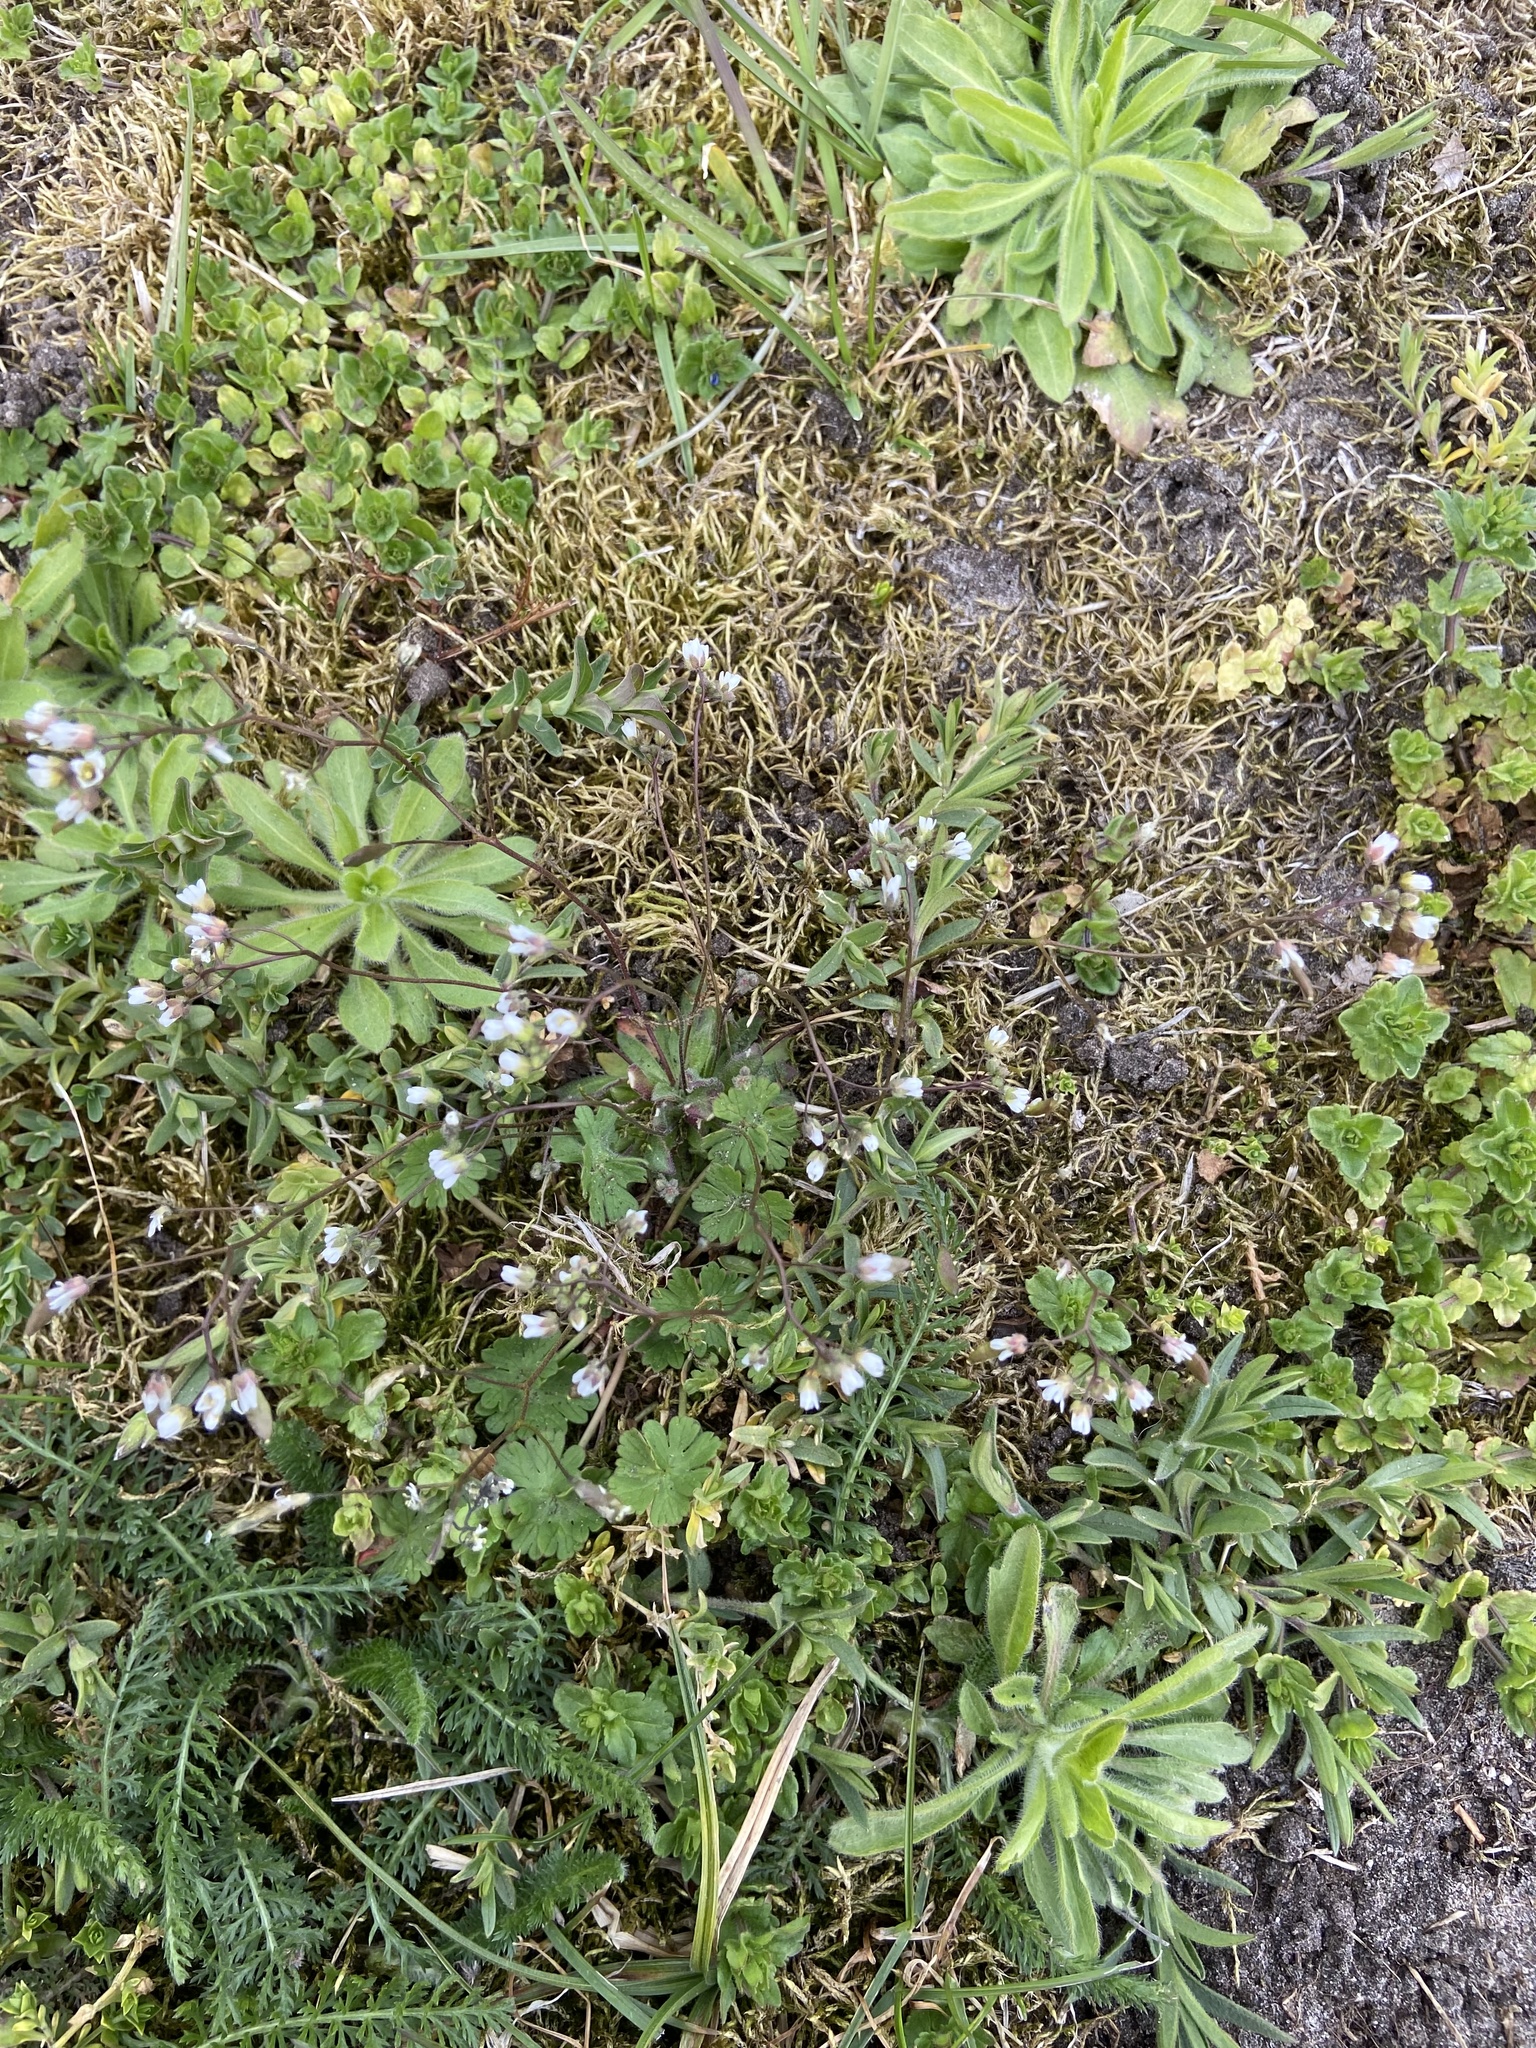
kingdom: Plantae
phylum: Tracheophyta
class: Magnoliopsida
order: Brassicales
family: Brassicaceae
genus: Draba
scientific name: Draba verna
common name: Spring draba
